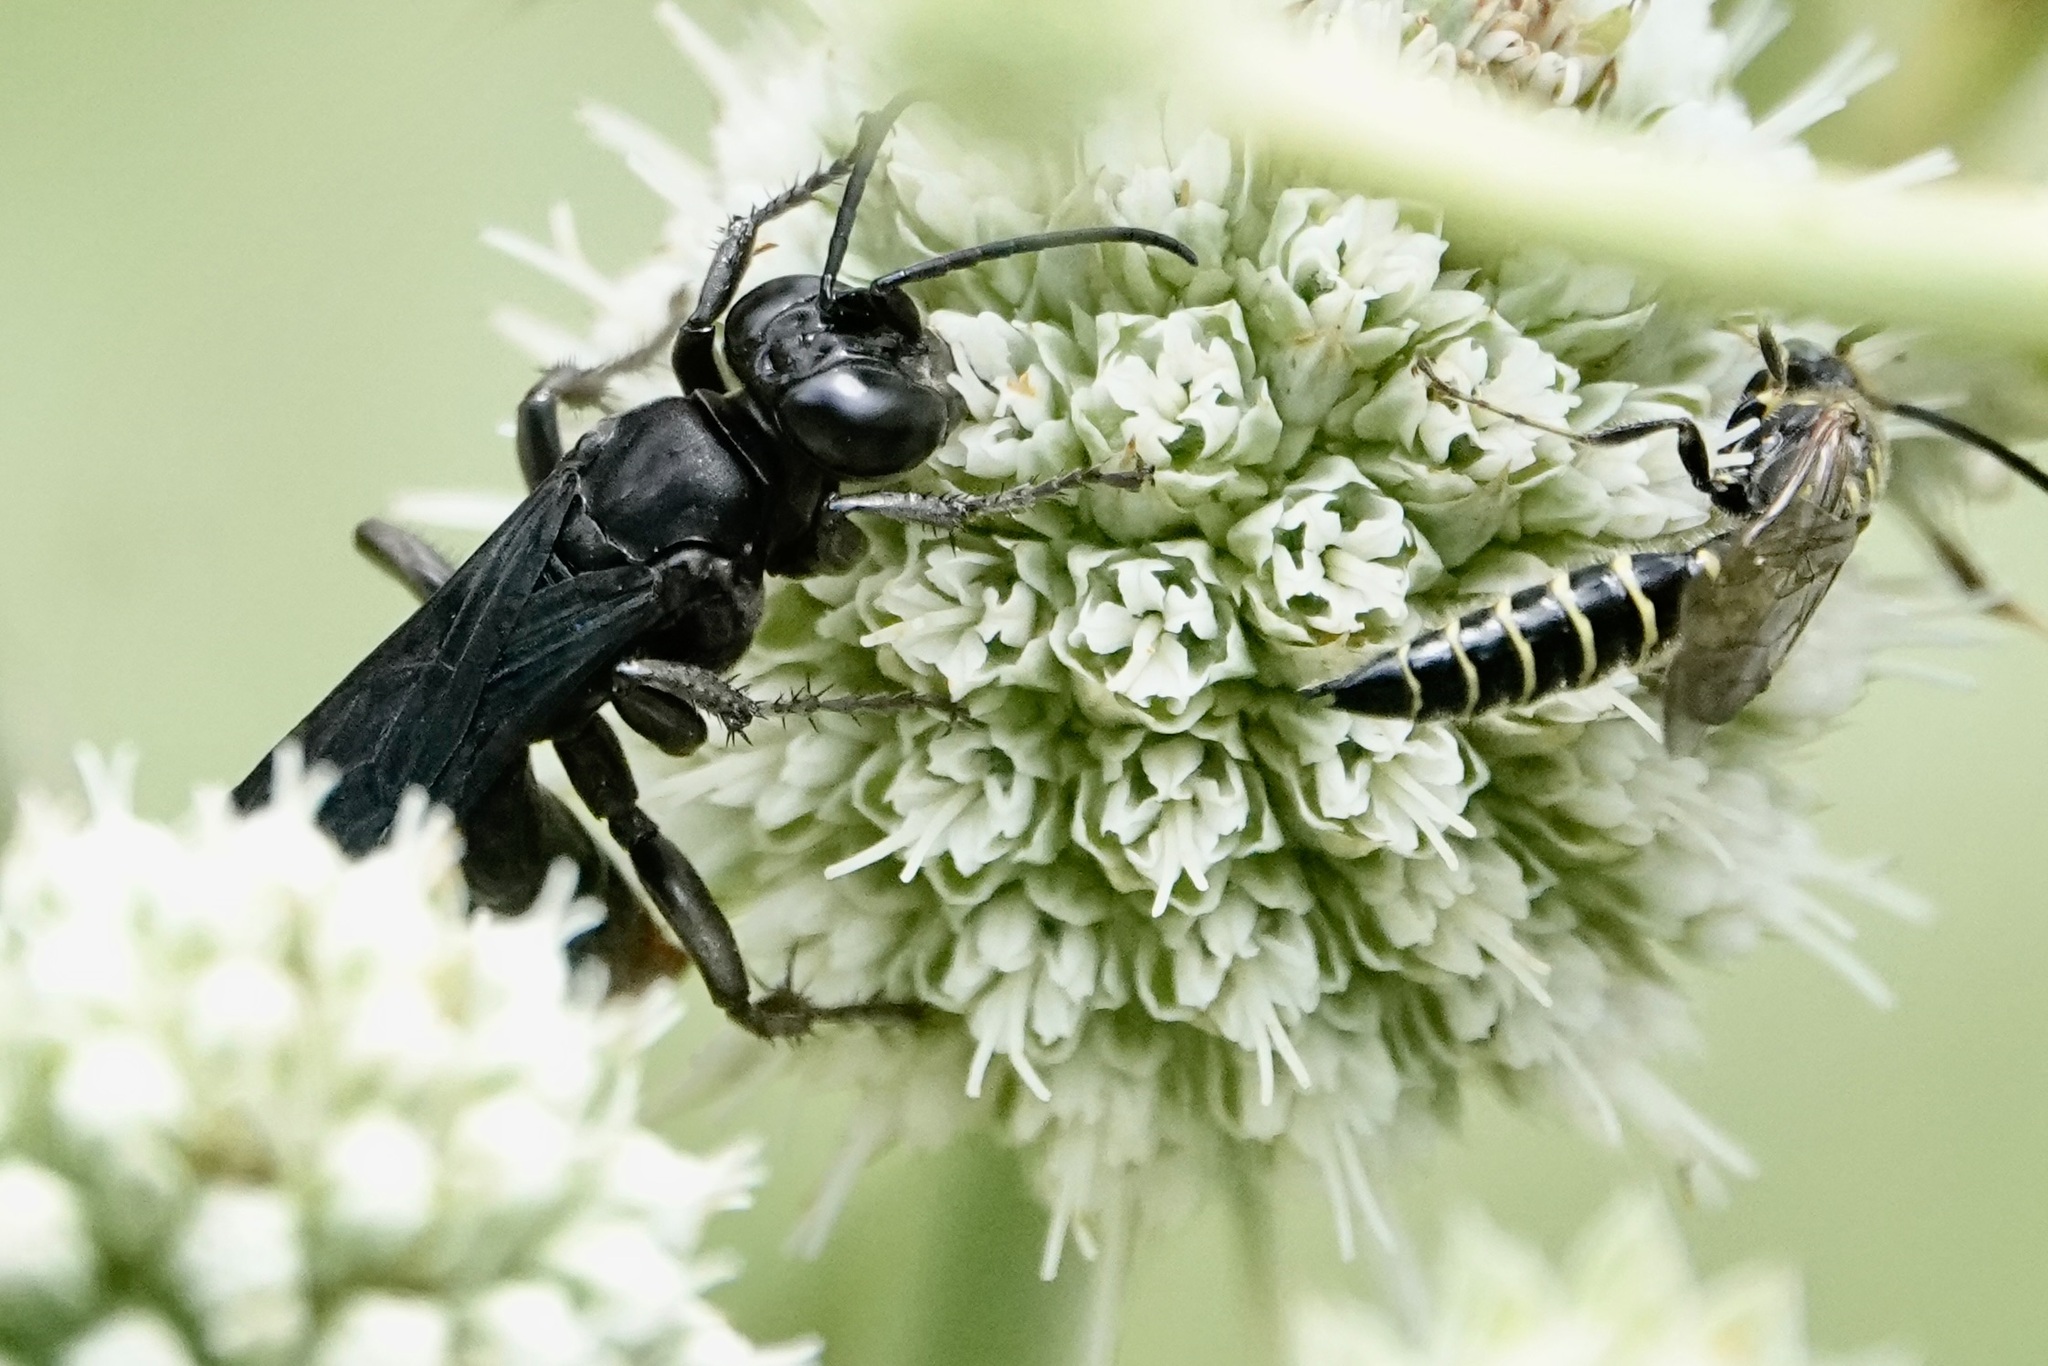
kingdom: Animalia
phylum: Arthropoda
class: Insecta
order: Hymenoptera
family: Crabronidae
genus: Larra
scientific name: Larra analis
